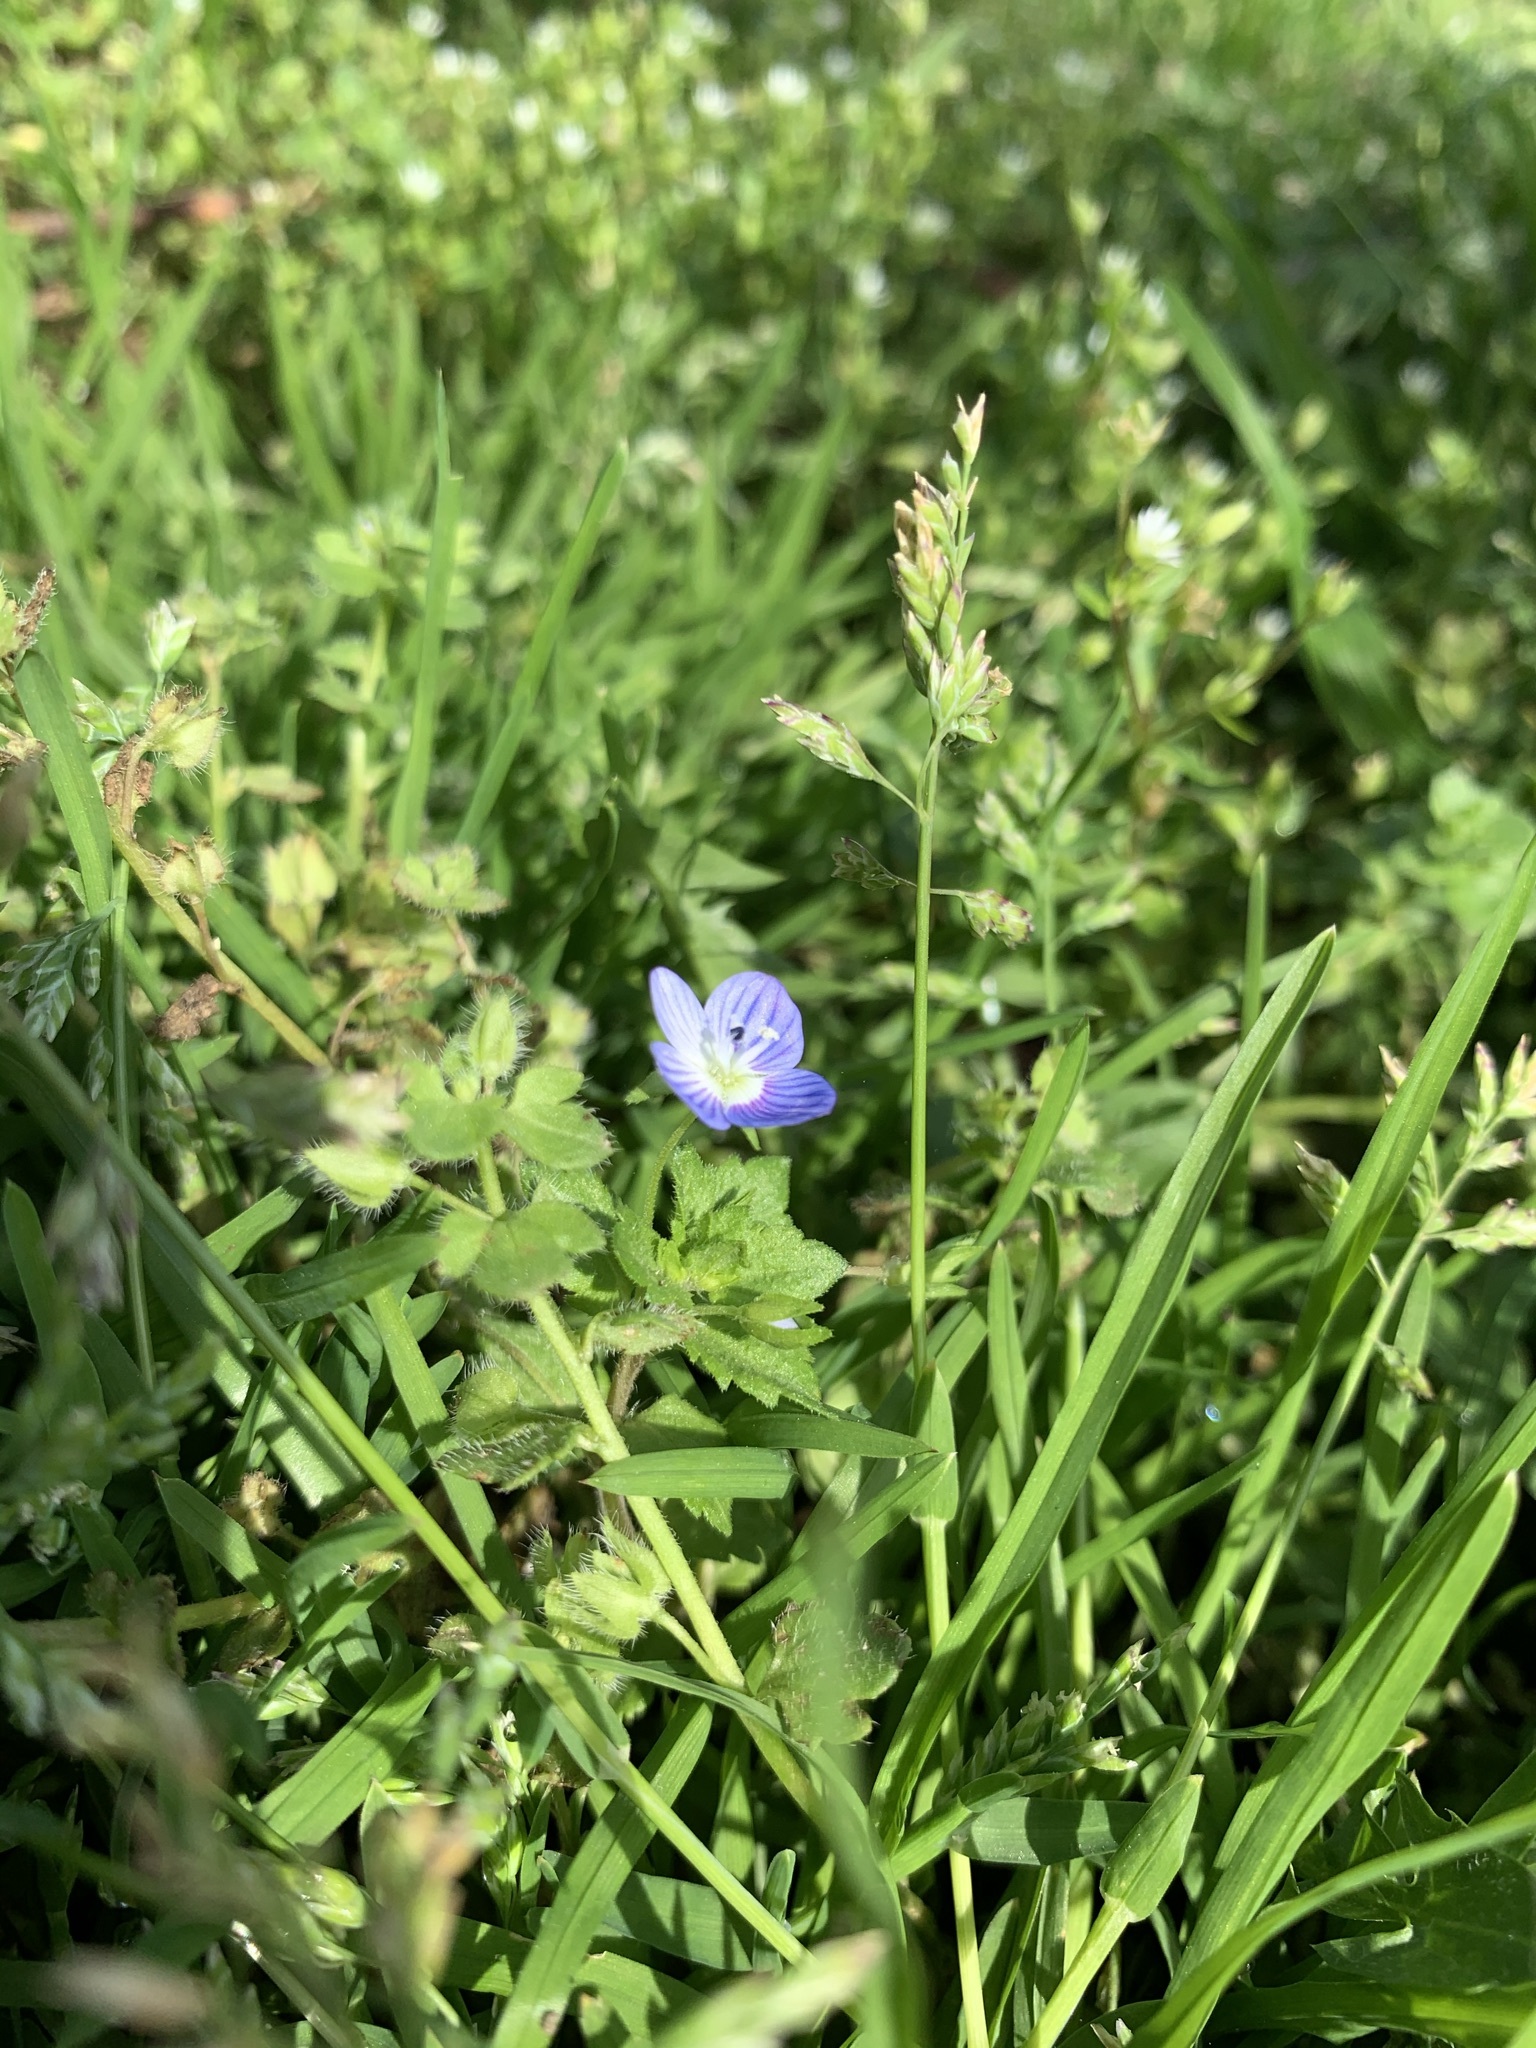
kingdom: Plantae
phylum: Tracheophyta
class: Magnoliopsida
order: Lamiales
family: Plantaginaceae
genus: Veronica
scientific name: Veronica persica
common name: Common field-speedwell
